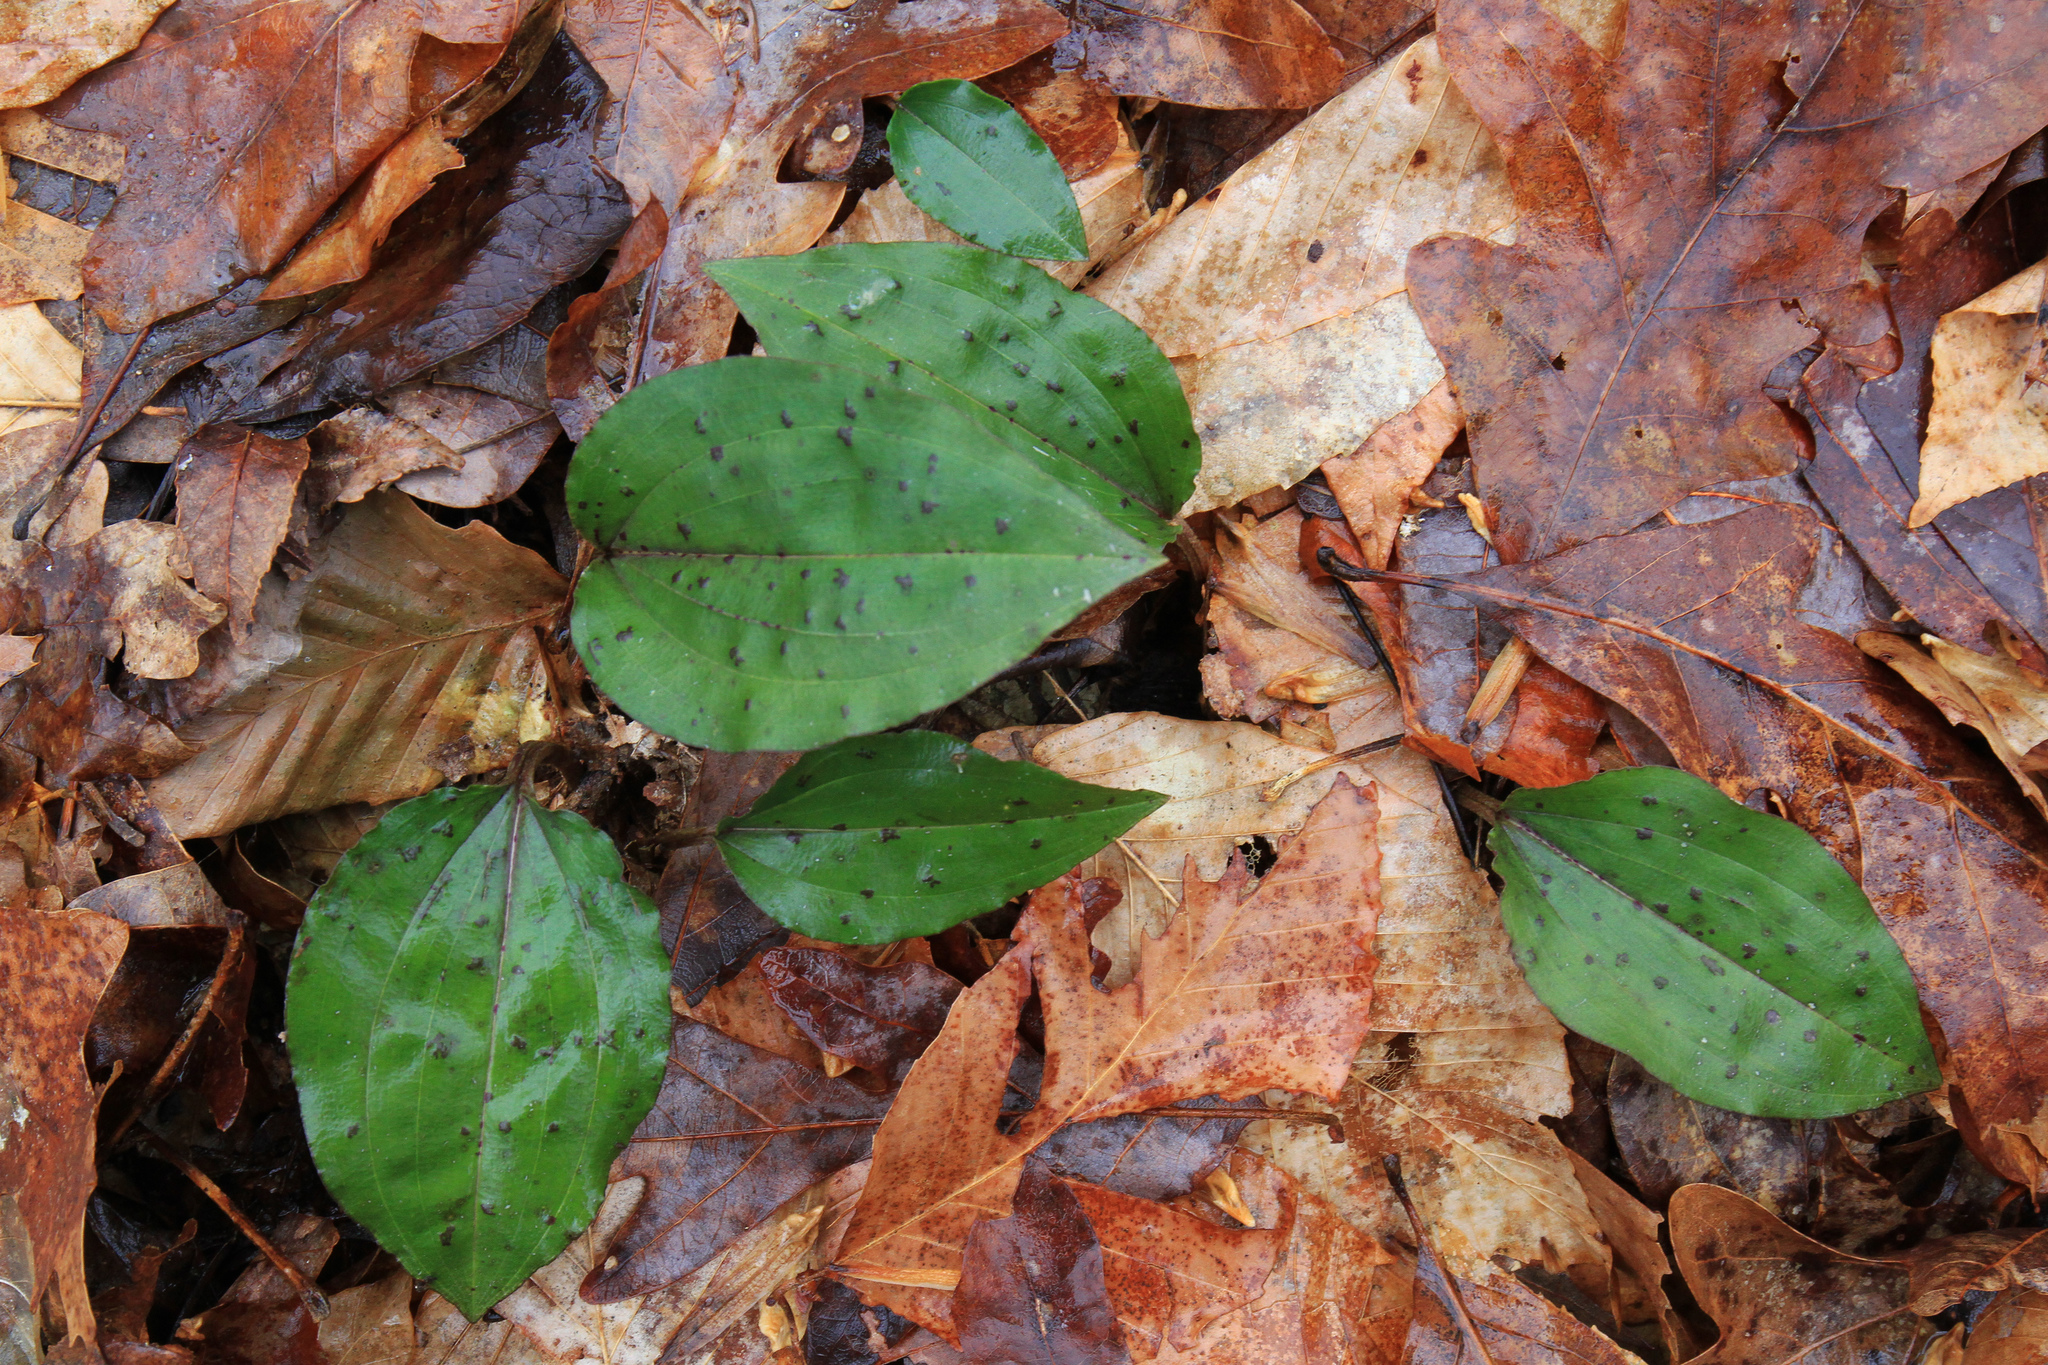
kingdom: Plantae
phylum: Tracheophyta
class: Liliopsida
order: Asparagales
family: Orchidaceae
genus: Tipularia
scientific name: Tipularia discolor
